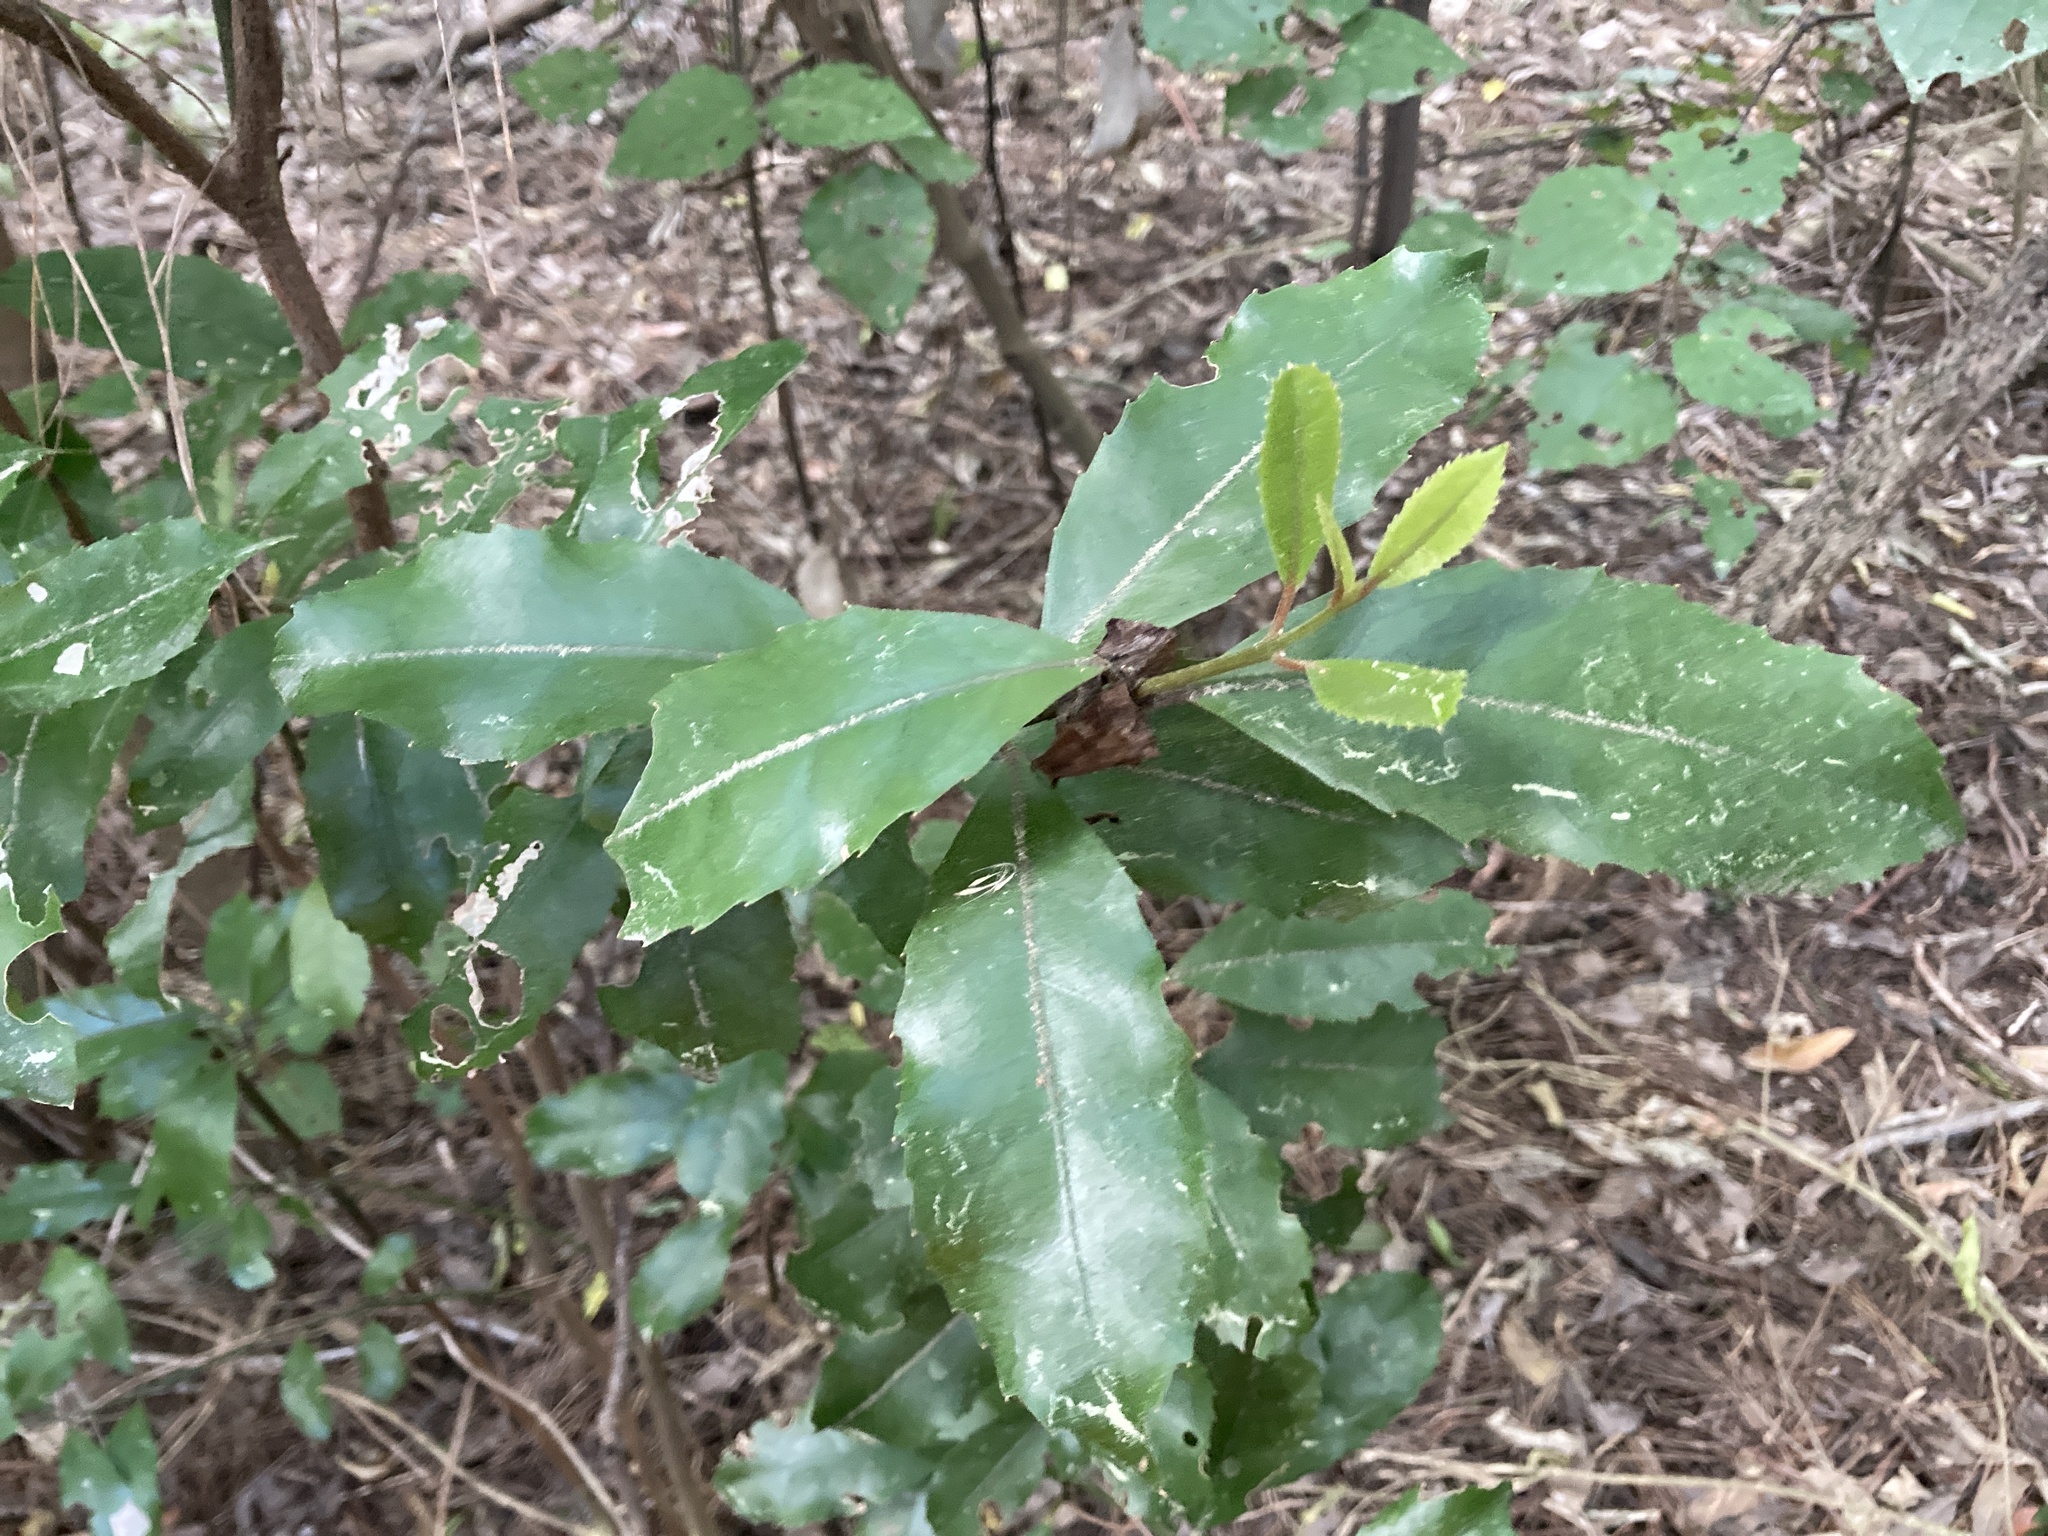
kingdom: Plantae
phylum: Tracheophyta
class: Magnoliopsida
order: Laurales
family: Monimiaceae
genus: Hedycarya
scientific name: Hedycarya arborea
